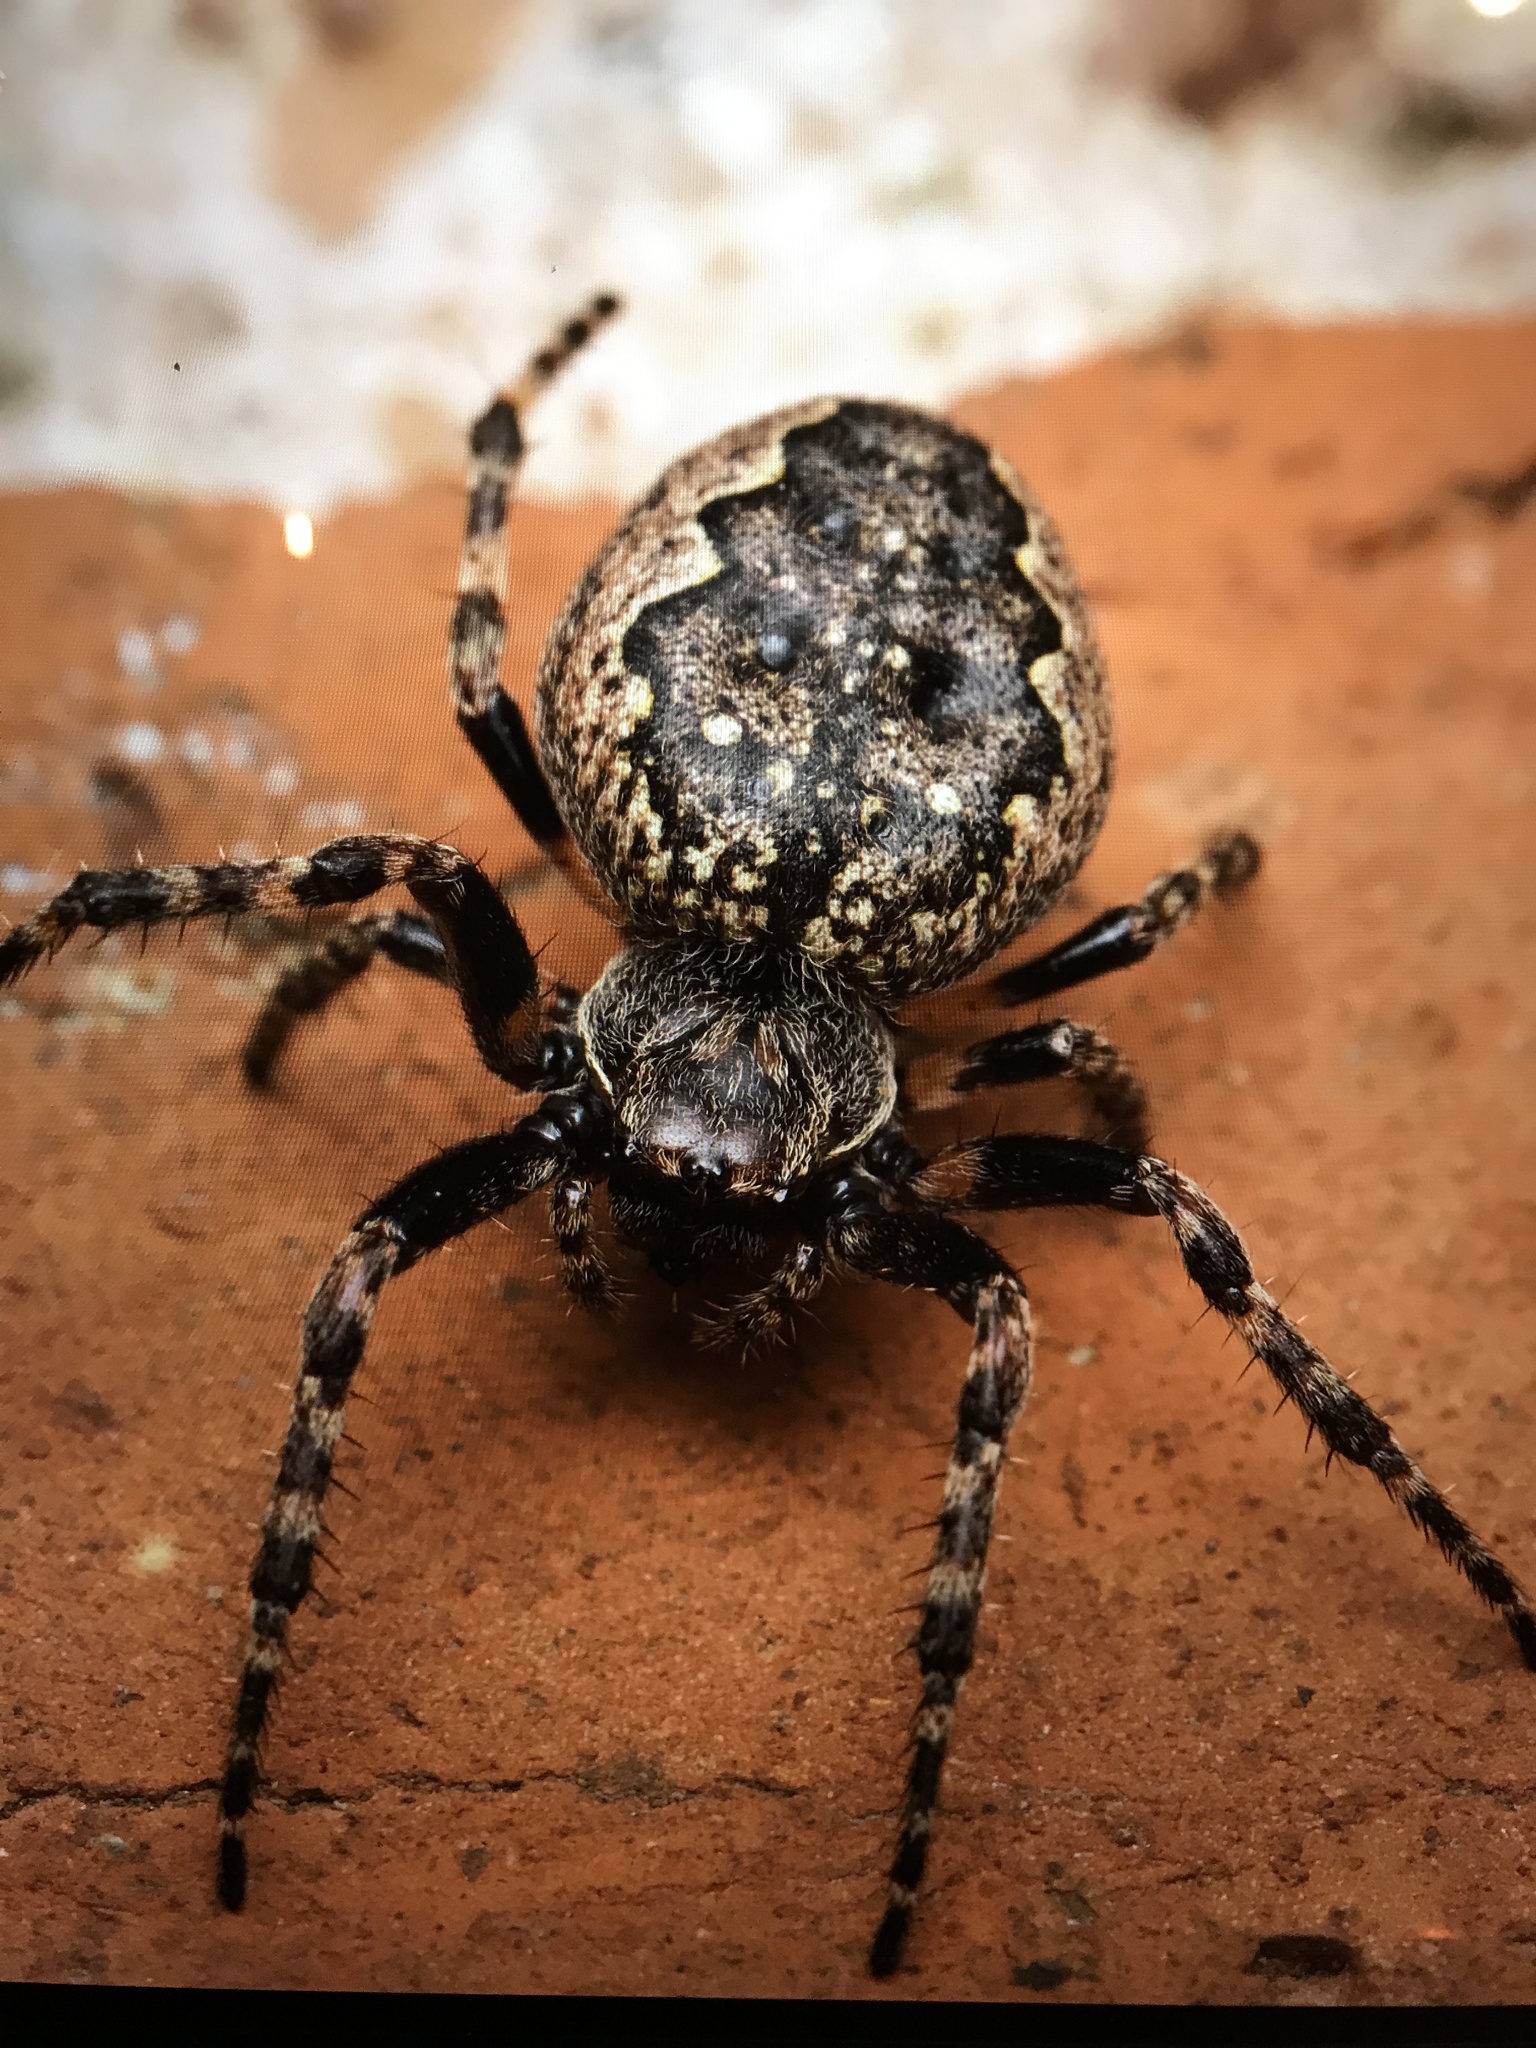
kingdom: Animalia
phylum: Arthropoda
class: Arachnida
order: Araneae
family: Araneidae
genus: Nuctenea
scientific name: Nuctenea umbratica
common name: Toad spider
